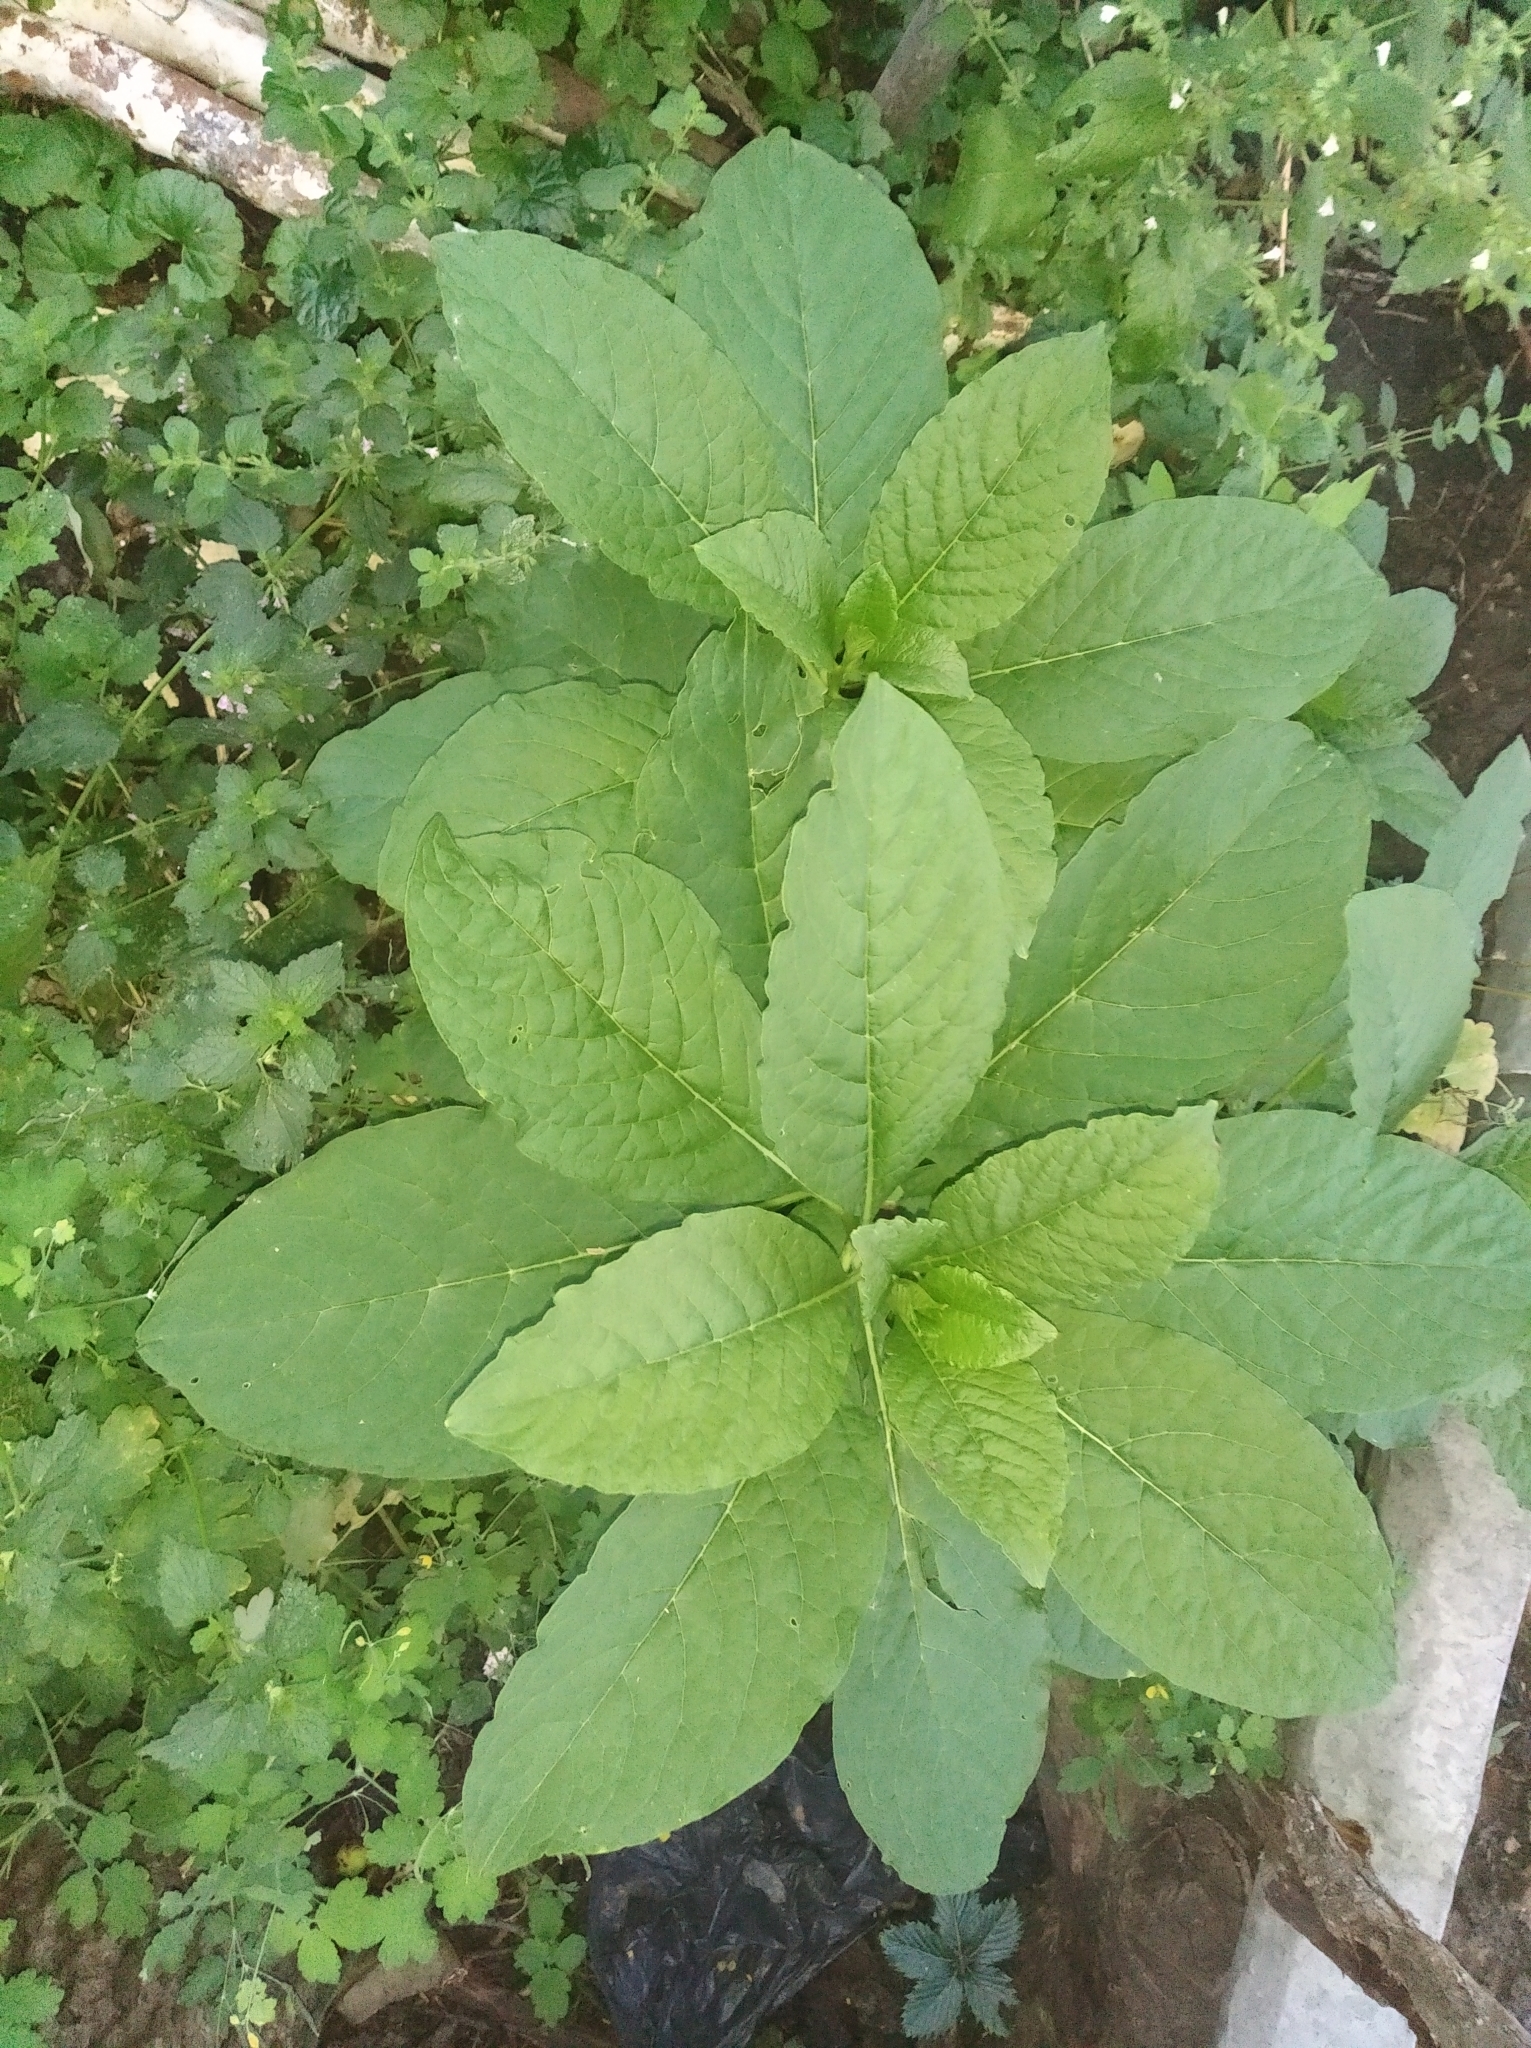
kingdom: Plantae
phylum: Tracheophyta
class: Magnoliopsida
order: Caryophyllales
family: Phytolaccaceae
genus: Phytolacca
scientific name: Phytolacca acinosa
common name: Indian pokeweed
